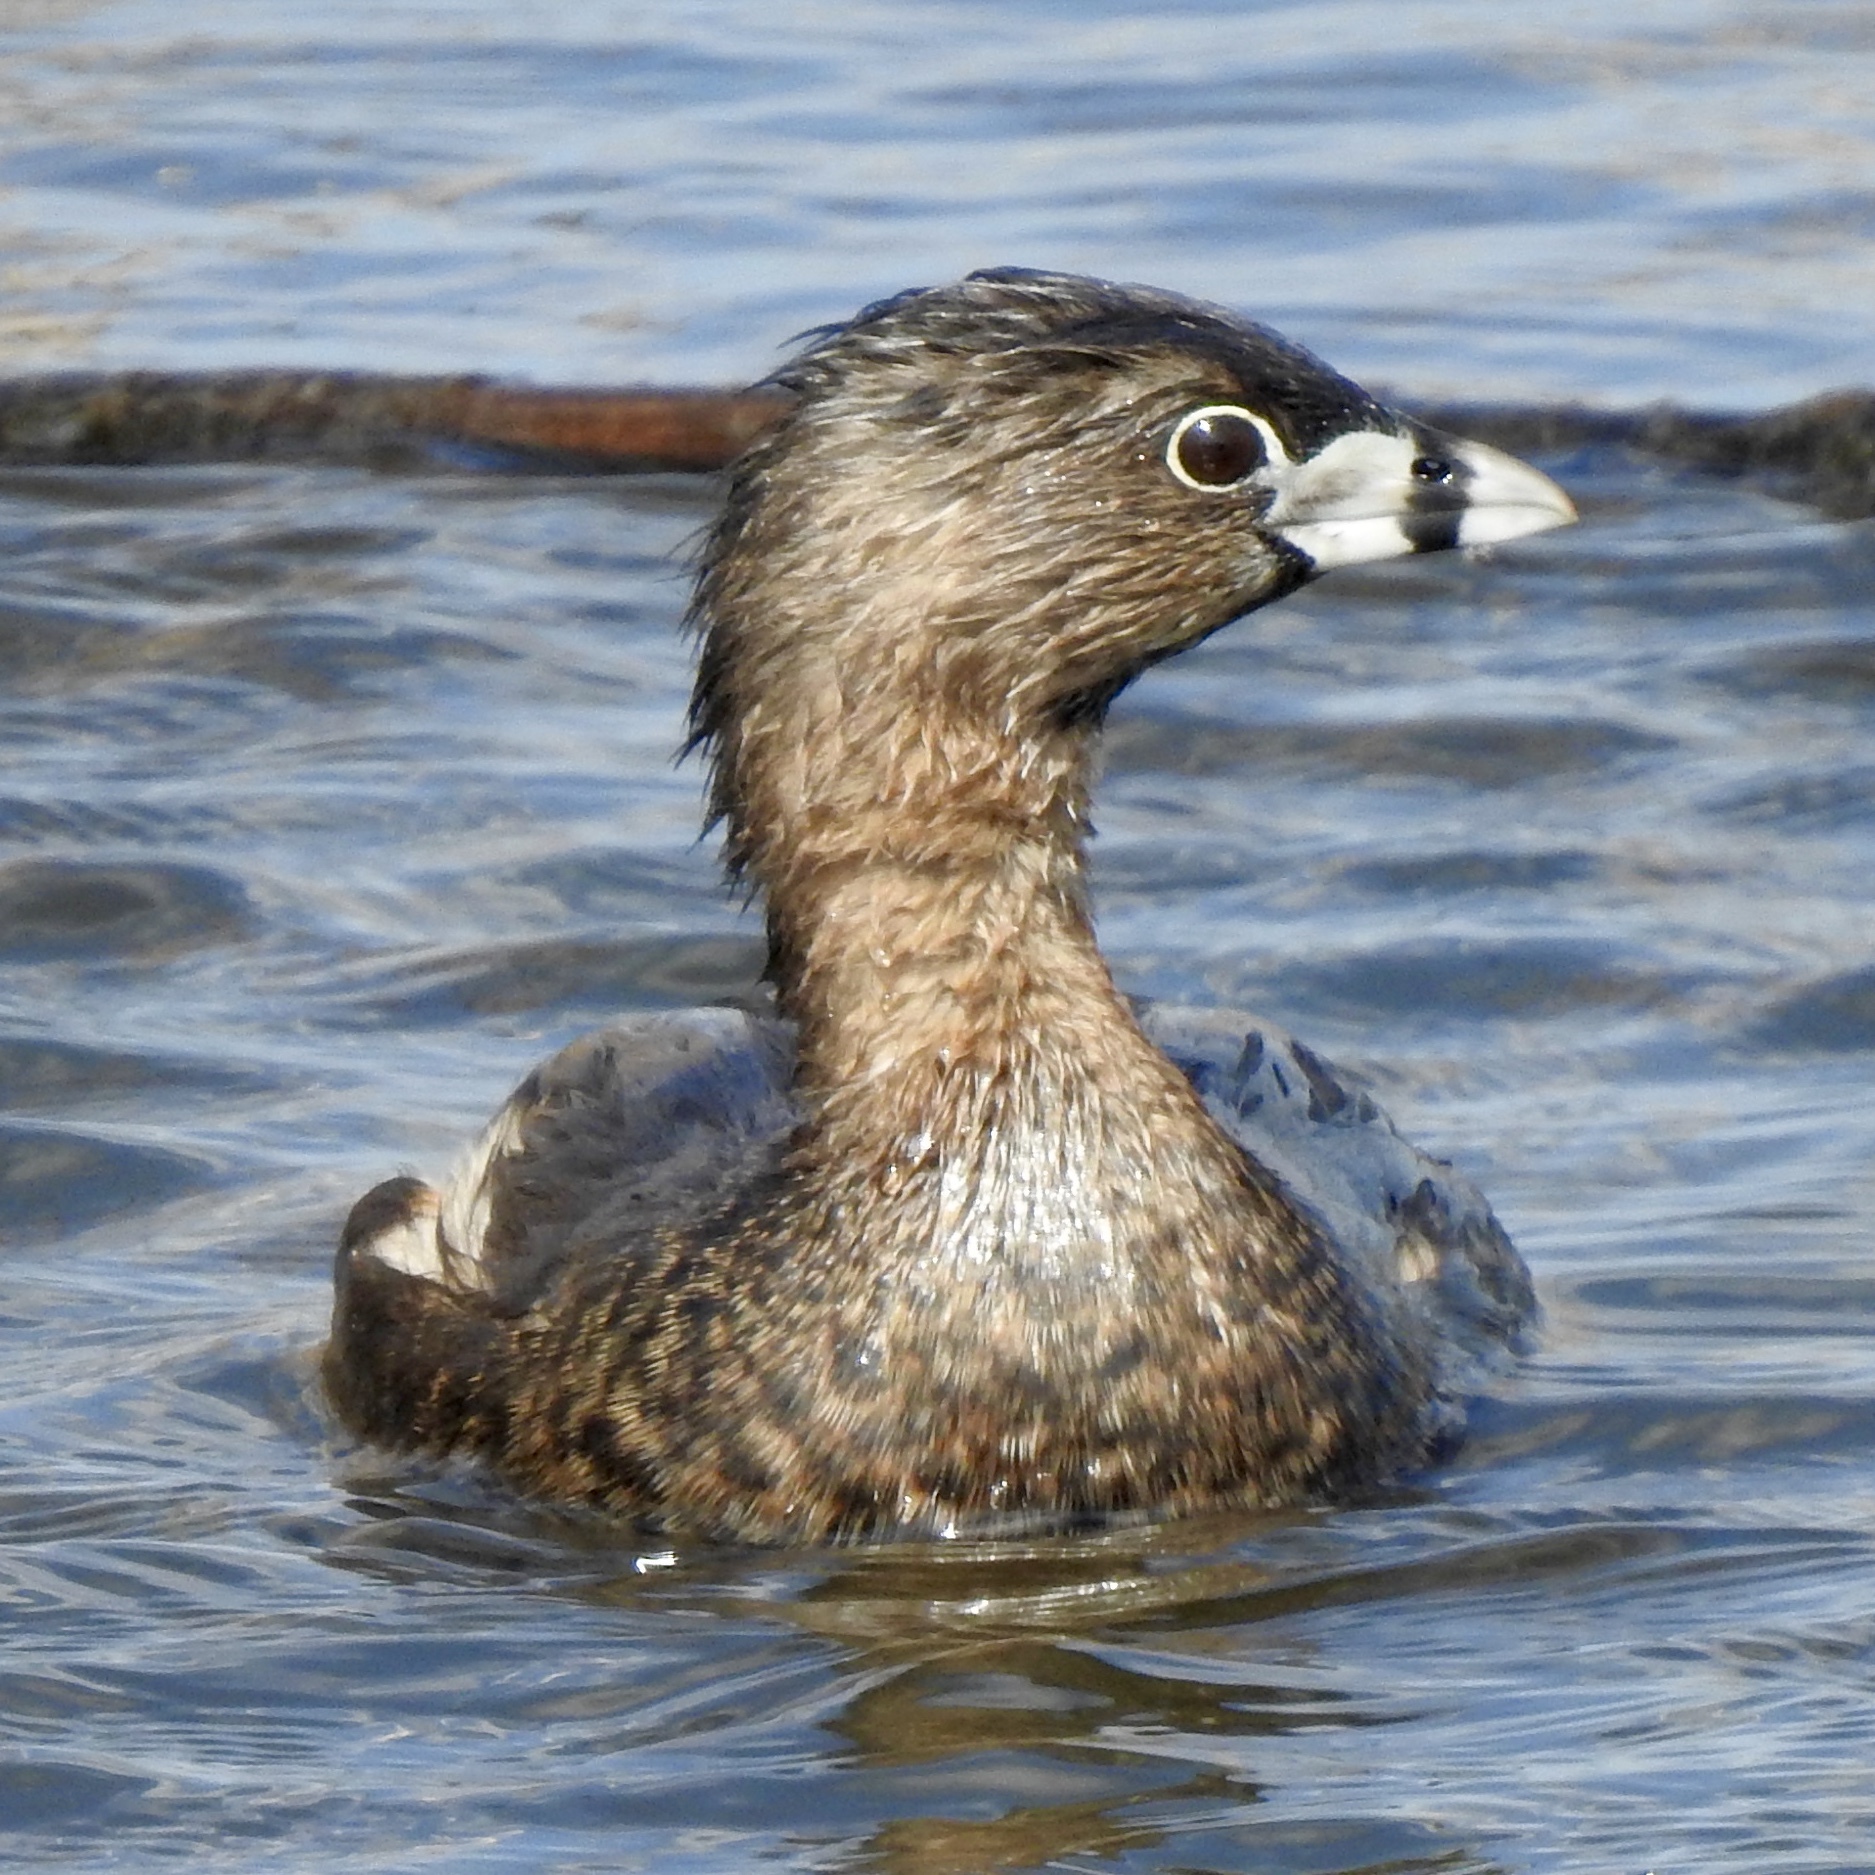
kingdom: Animalia
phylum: Chordata
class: Aves
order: Podicipediformes
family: Podicipedidae
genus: Podilymbus
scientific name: Podilymbus podiceps
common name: Pied-billed grebe
